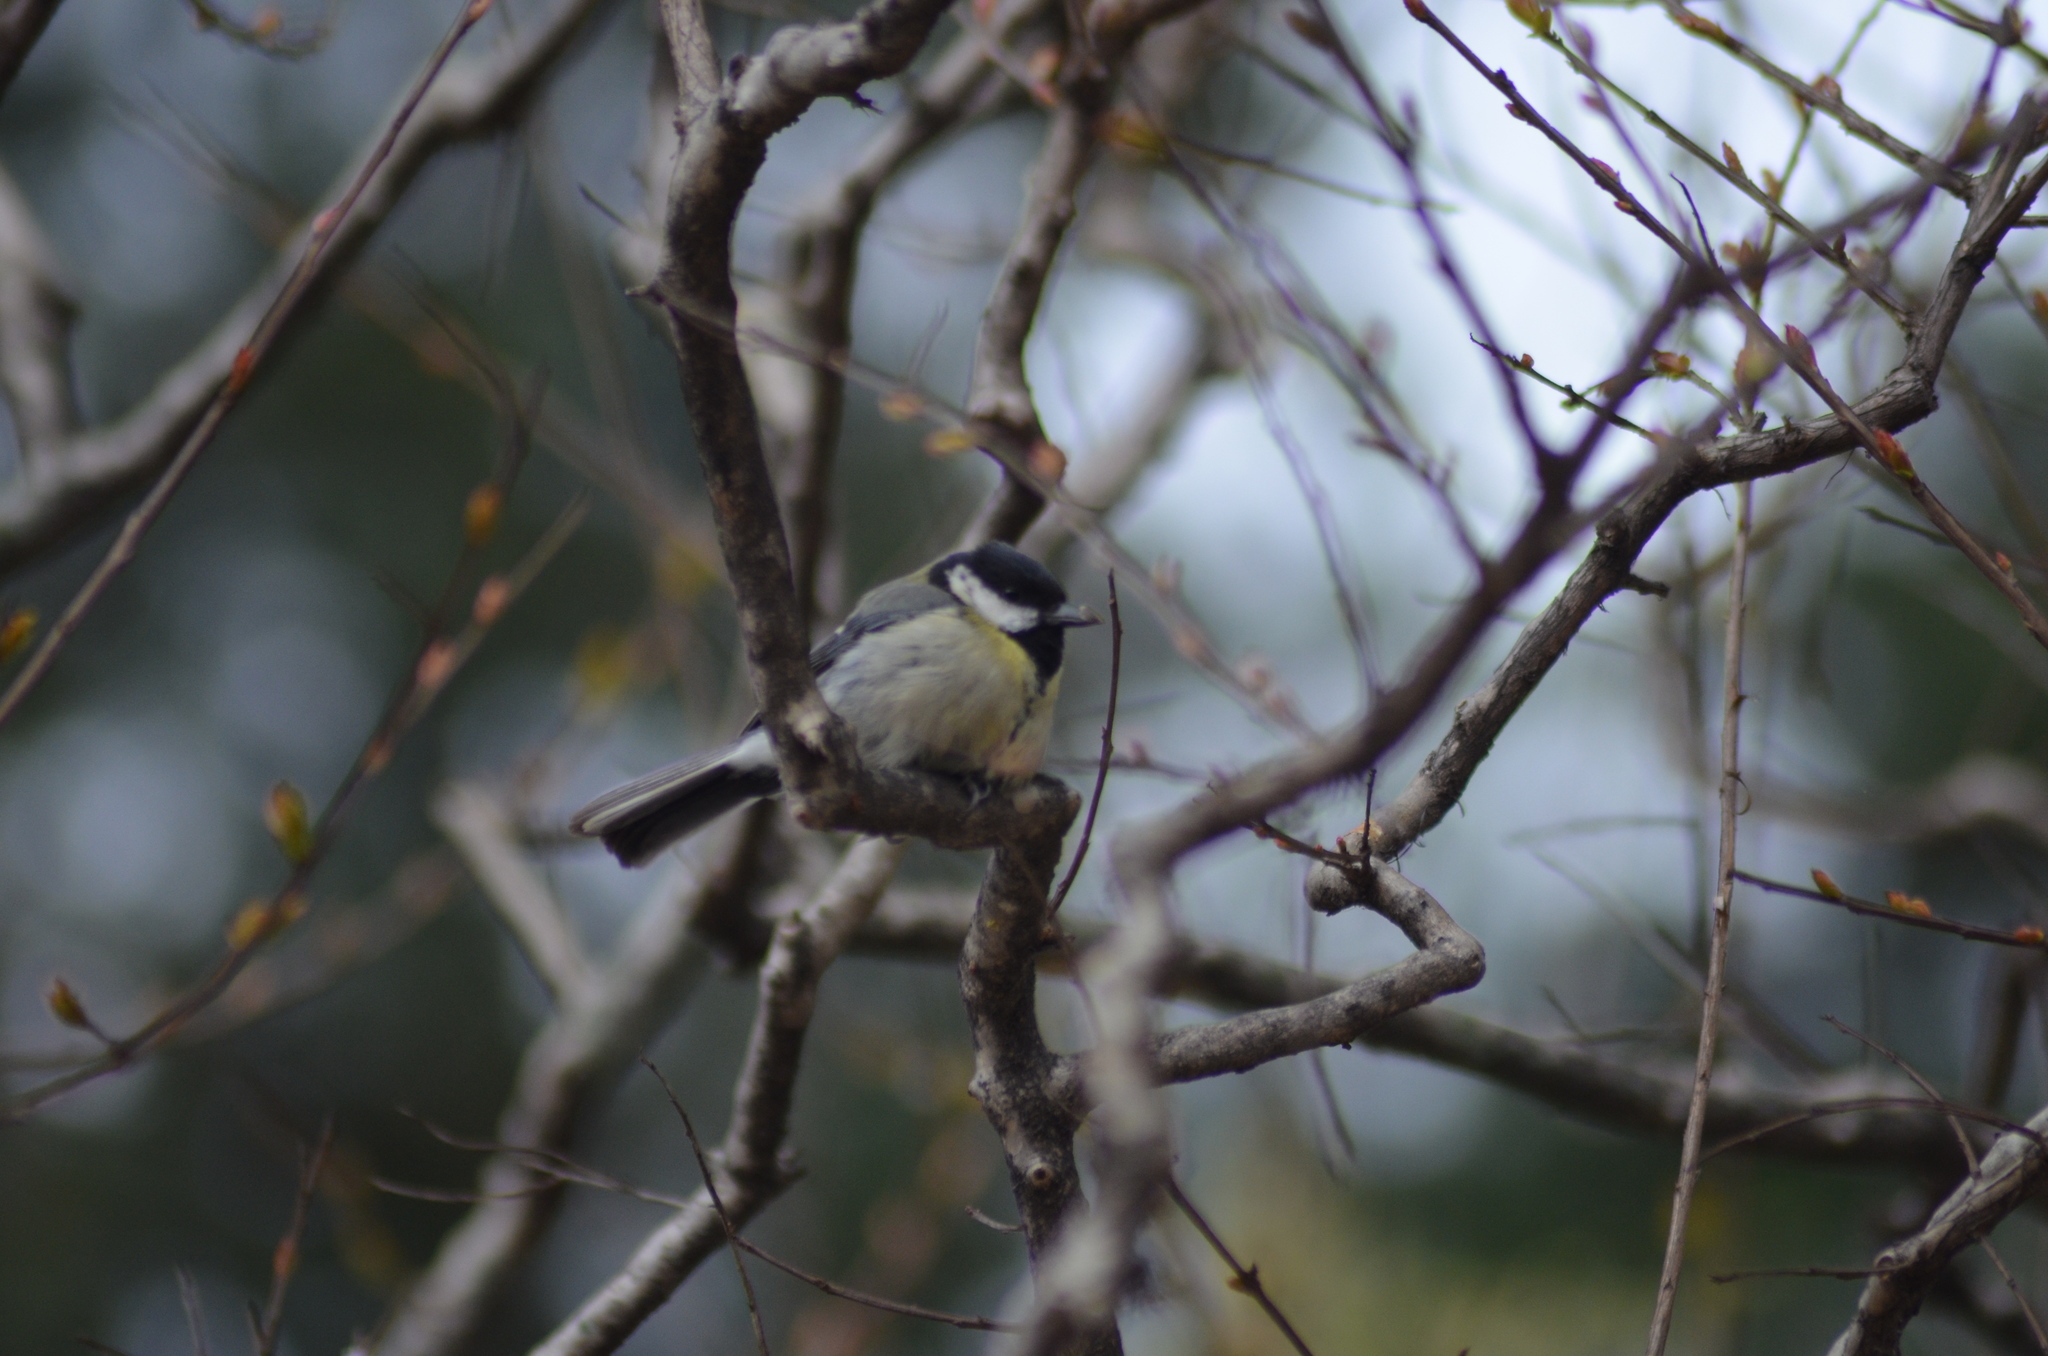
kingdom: Animalia
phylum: Chordata
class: Aves
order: Passeriformes
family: Paridae
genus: Parus
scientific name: Parus major
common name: Great tit
